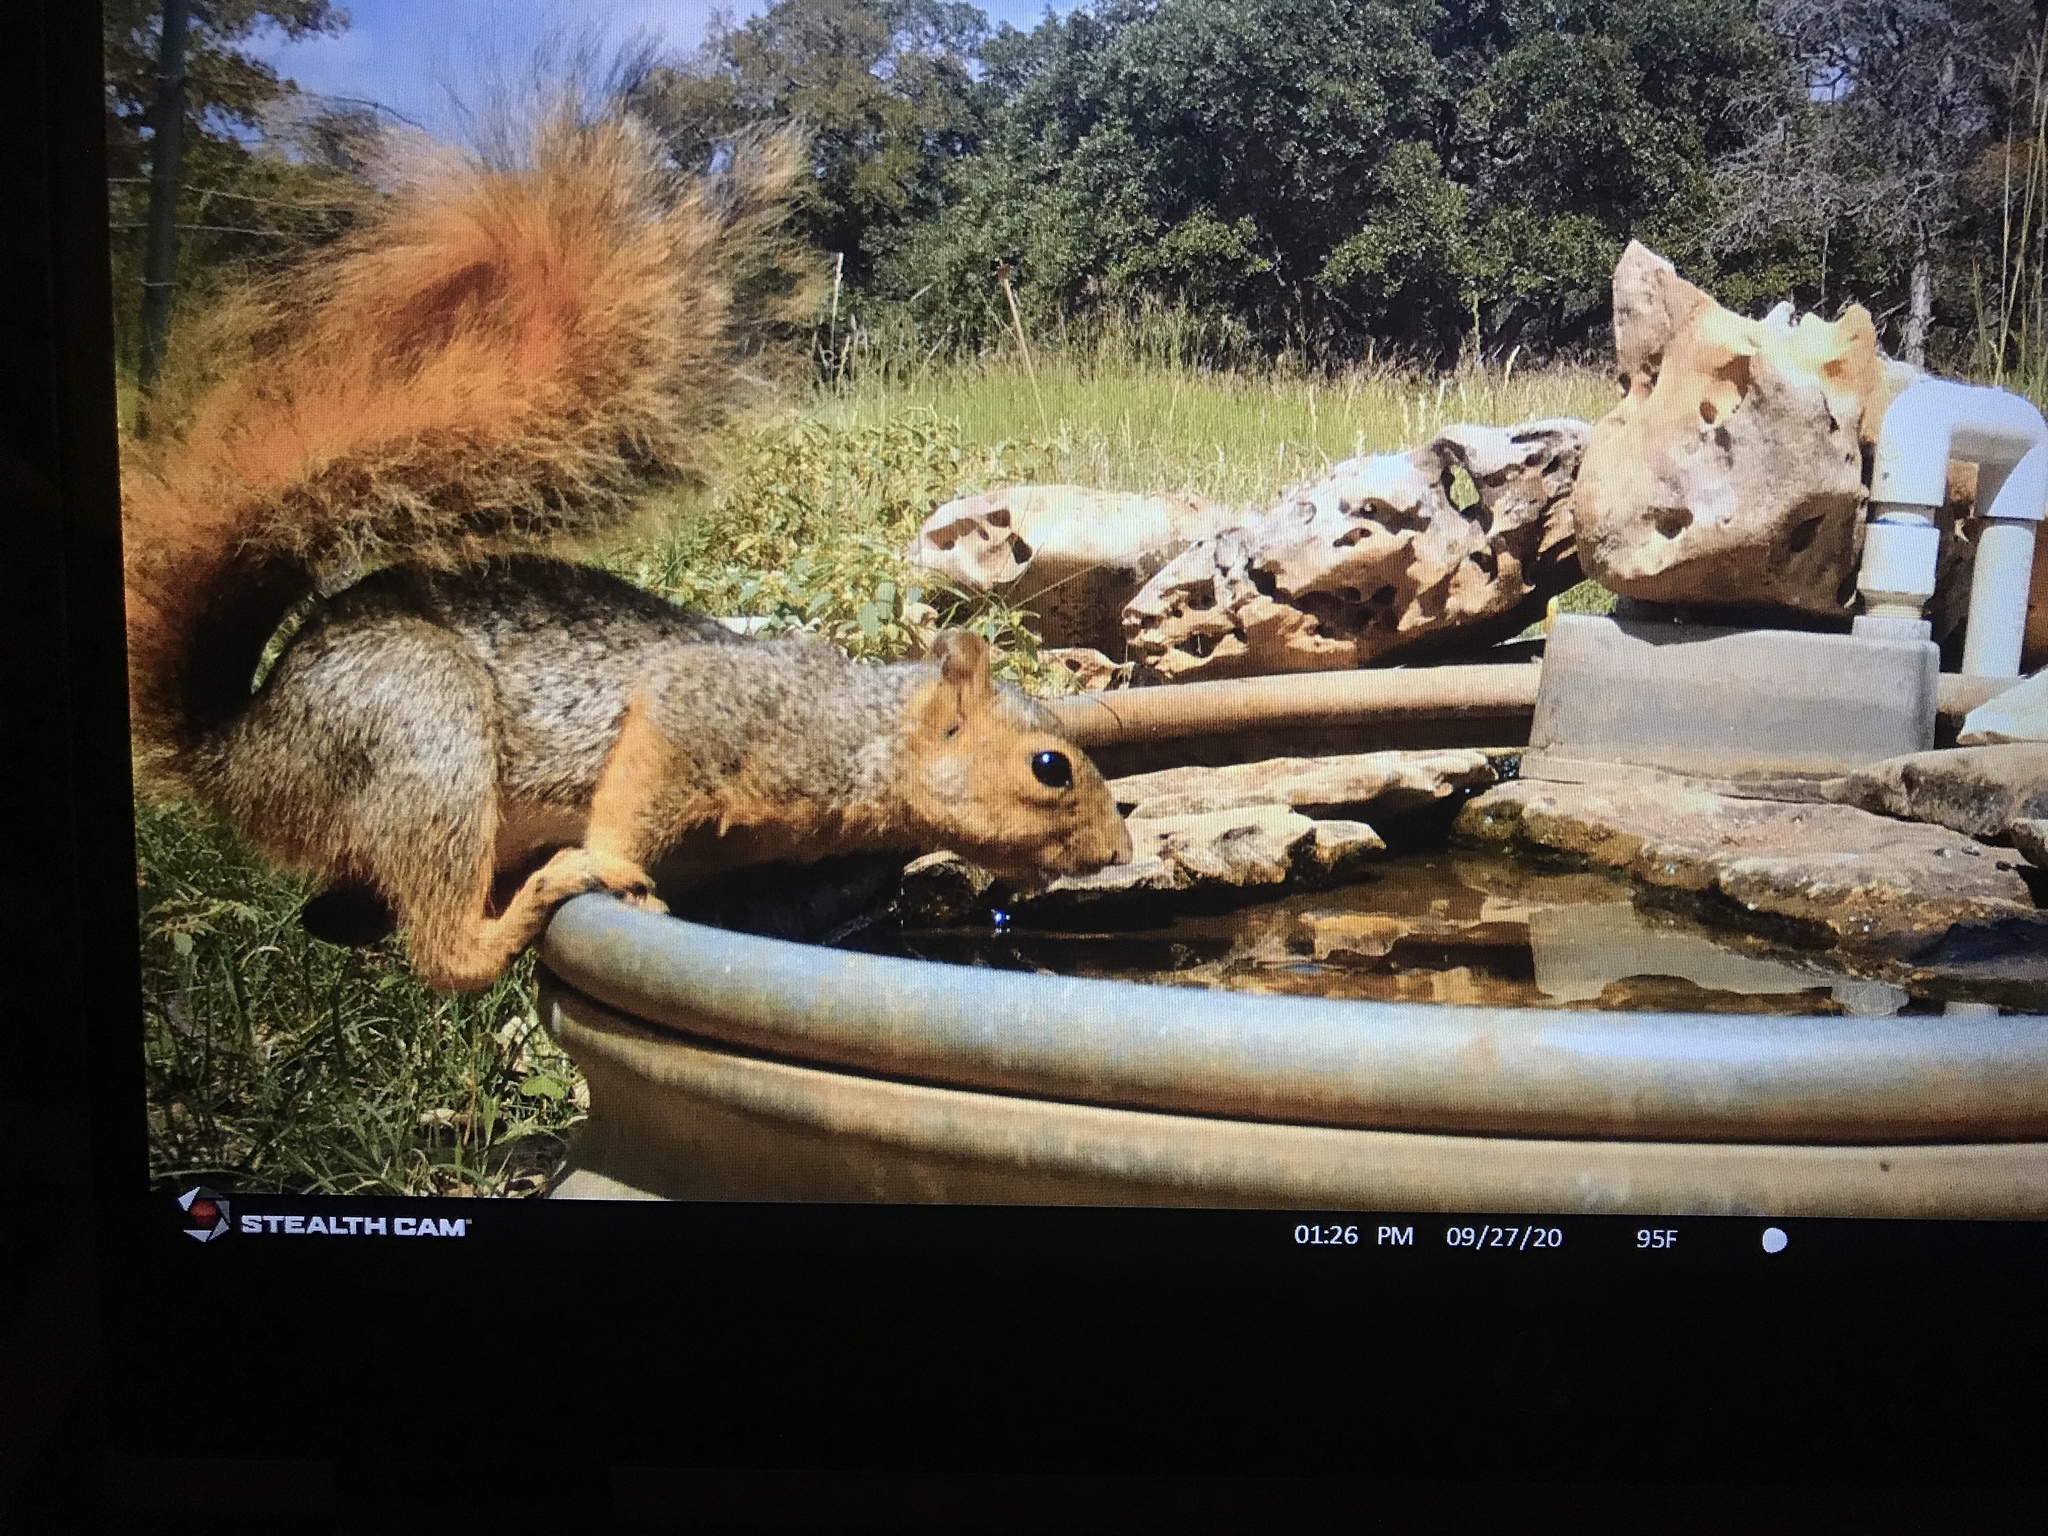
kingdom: Animalia
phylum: Chordata
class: Mammalia
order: Rodentia
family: Sciuridae
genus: Sciurus
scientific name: Sciurus niger
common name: Fox squirrel
